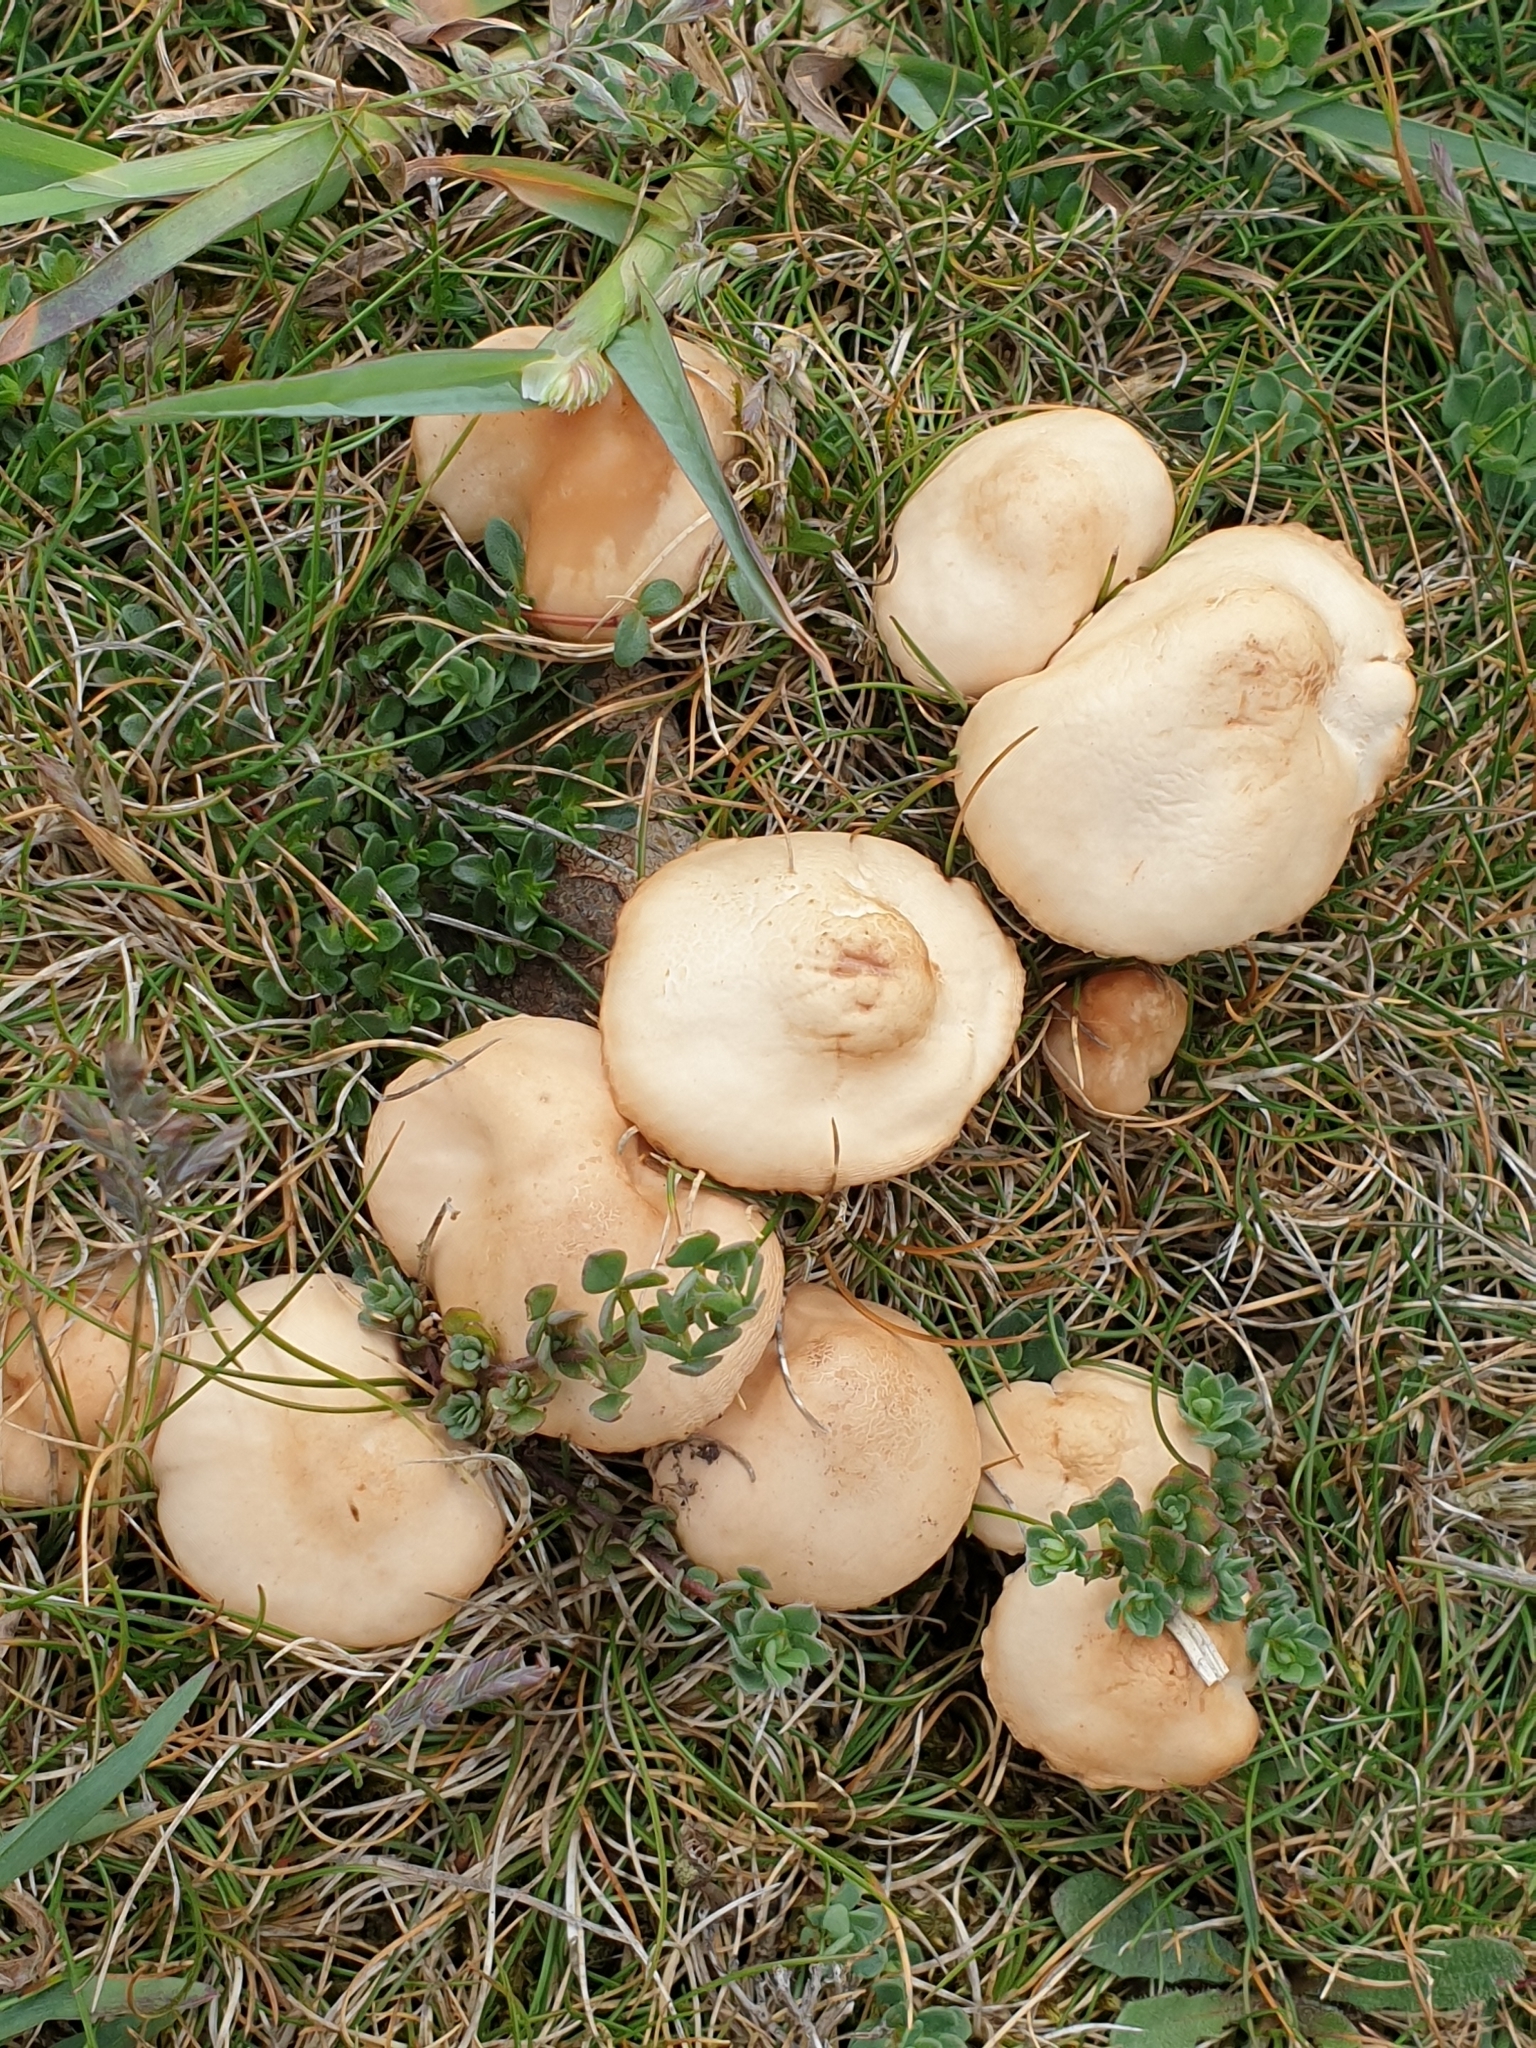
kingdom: Fungi
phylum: Basidiomycota
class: Agaricomycetes
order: Agaricales
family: Marasmiaceae
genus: Marasmius
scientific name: Marasmius oreades
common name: Fairy ring champignon
